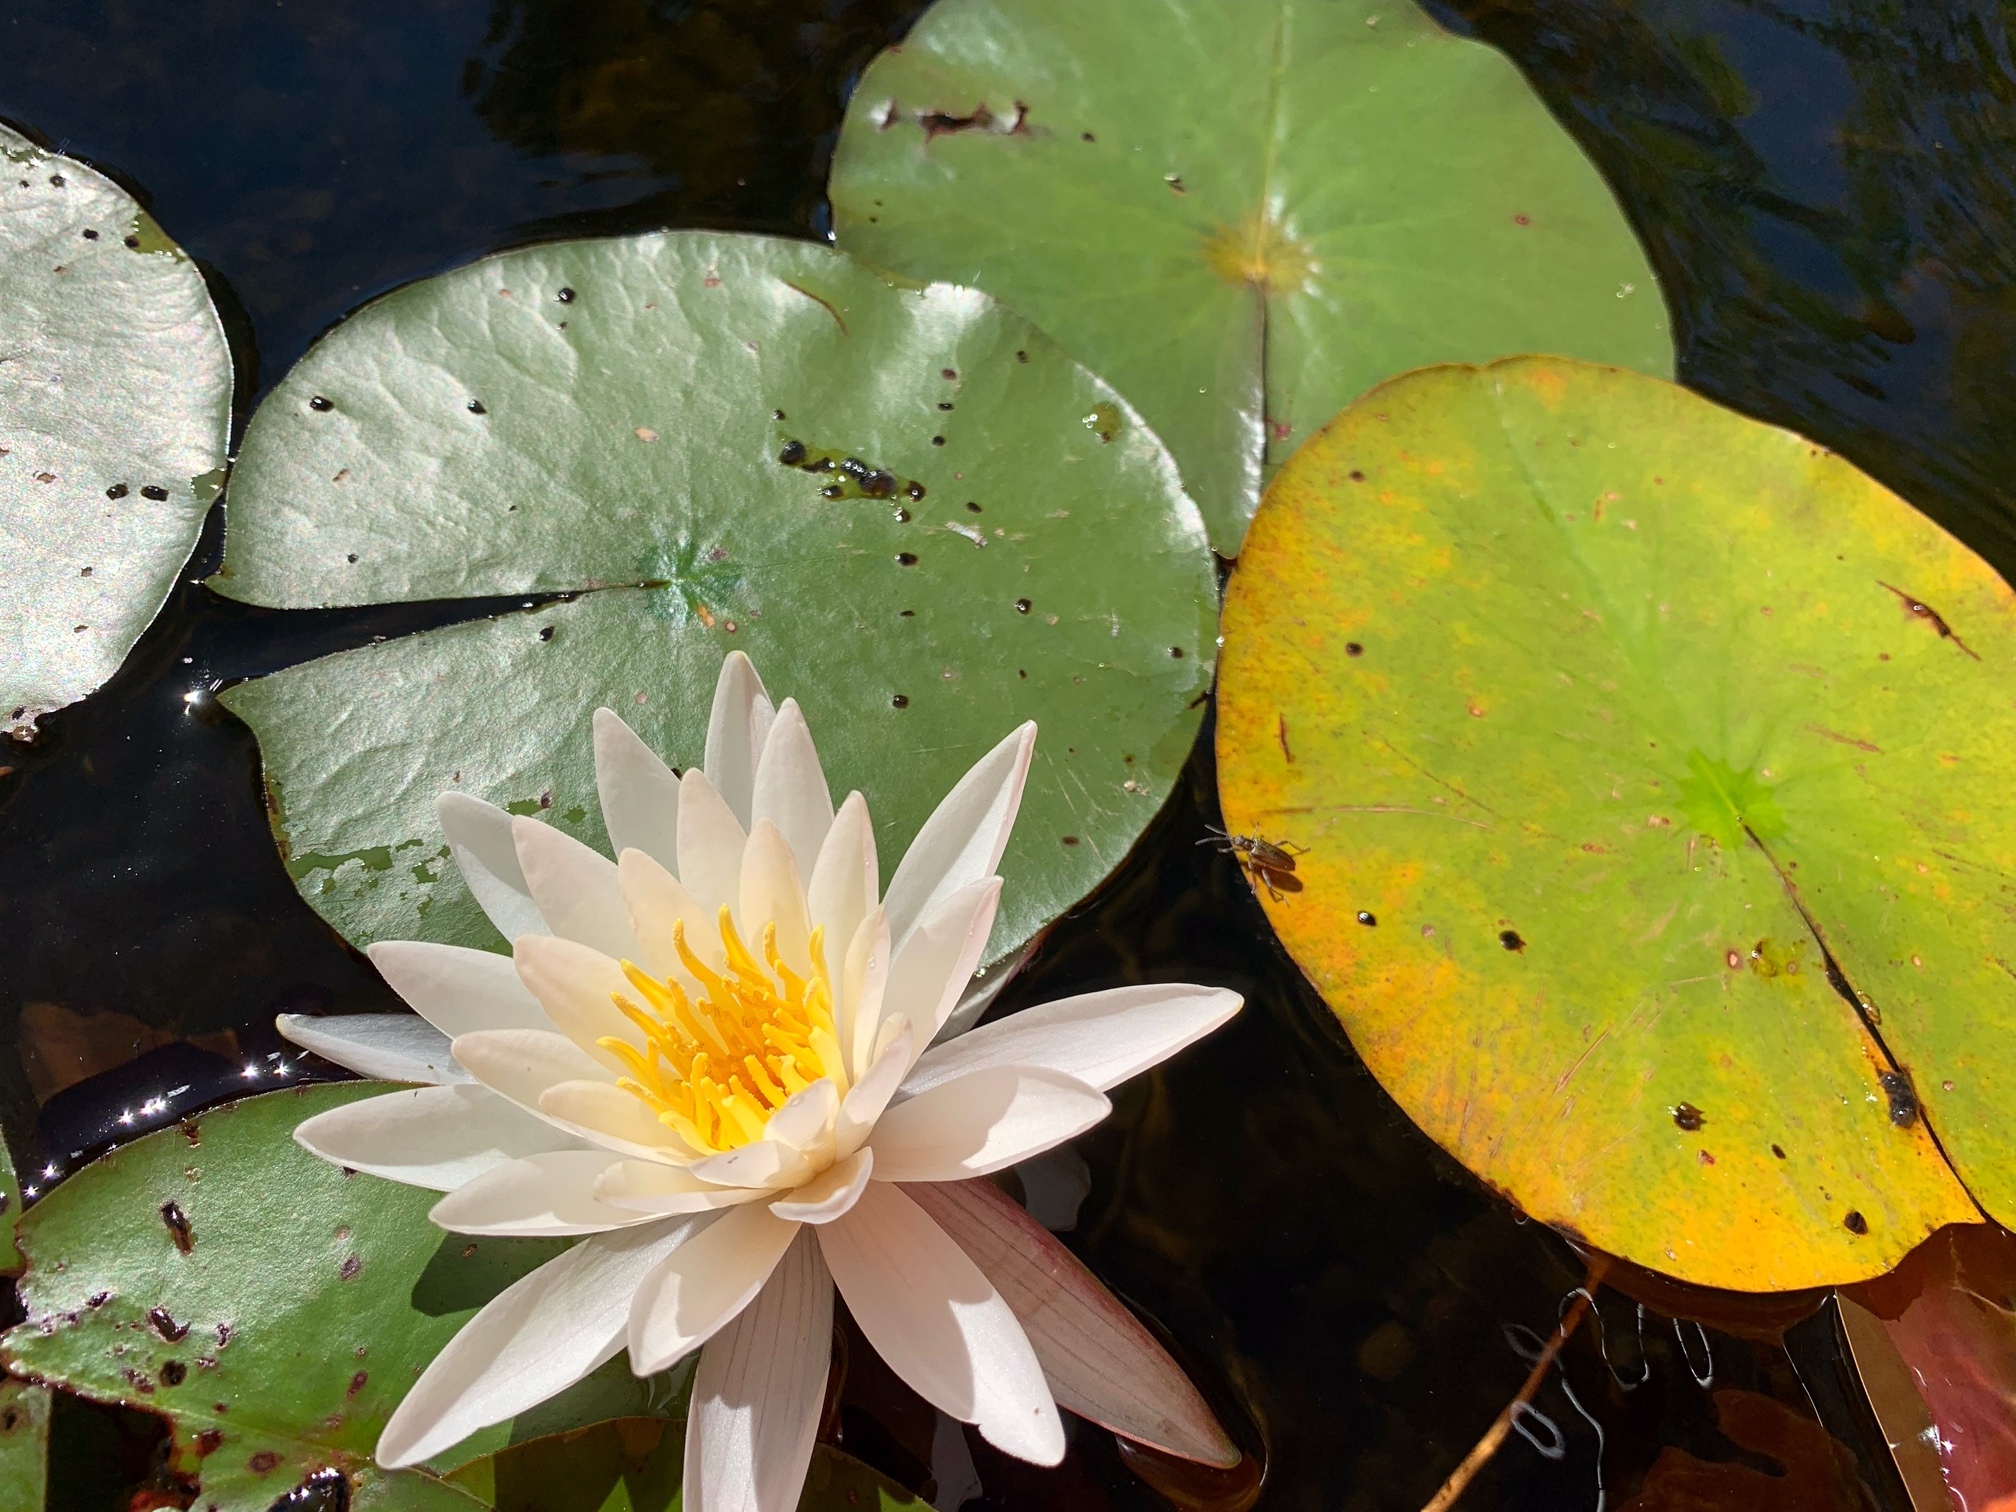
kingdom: Plantae
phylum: Tracheophyta
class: Magnoliopsida
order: Nymphaeales
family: Nymphaeaceae
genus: Nymphaea
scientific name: Nymphaea odorata
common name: Fragrant water-lily
